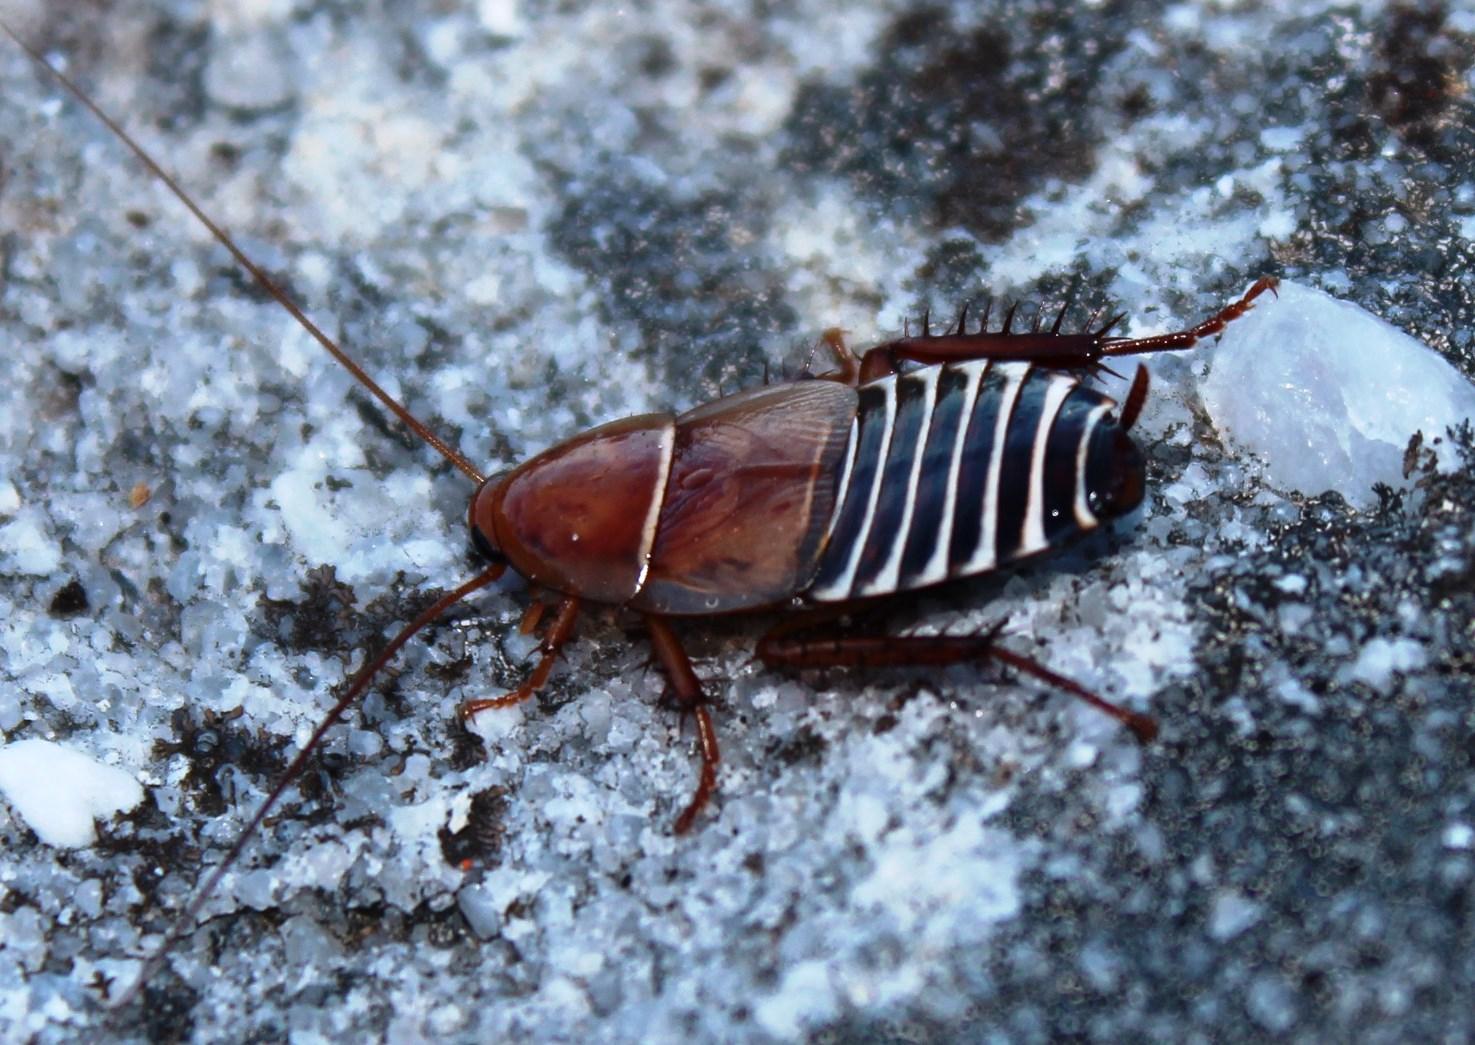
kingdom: Animalia
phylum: Arthropoda
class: Insecta
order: Blattodea
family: Ectobiidae
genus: Temnopteryx
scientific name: Temnopteryx phalerata
